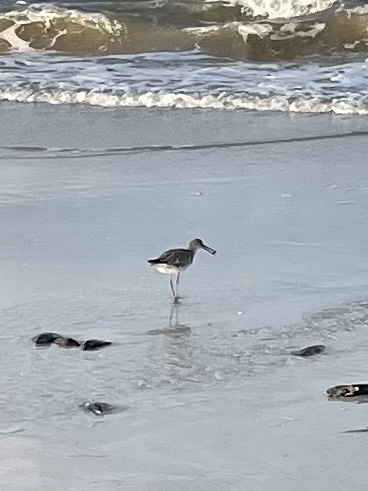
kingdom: Animalia
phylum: Chordata
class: Aves
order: Charadriiformes
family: Scolopacidae
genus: Tringa
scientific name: Tringa semipalmata
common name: Willet
